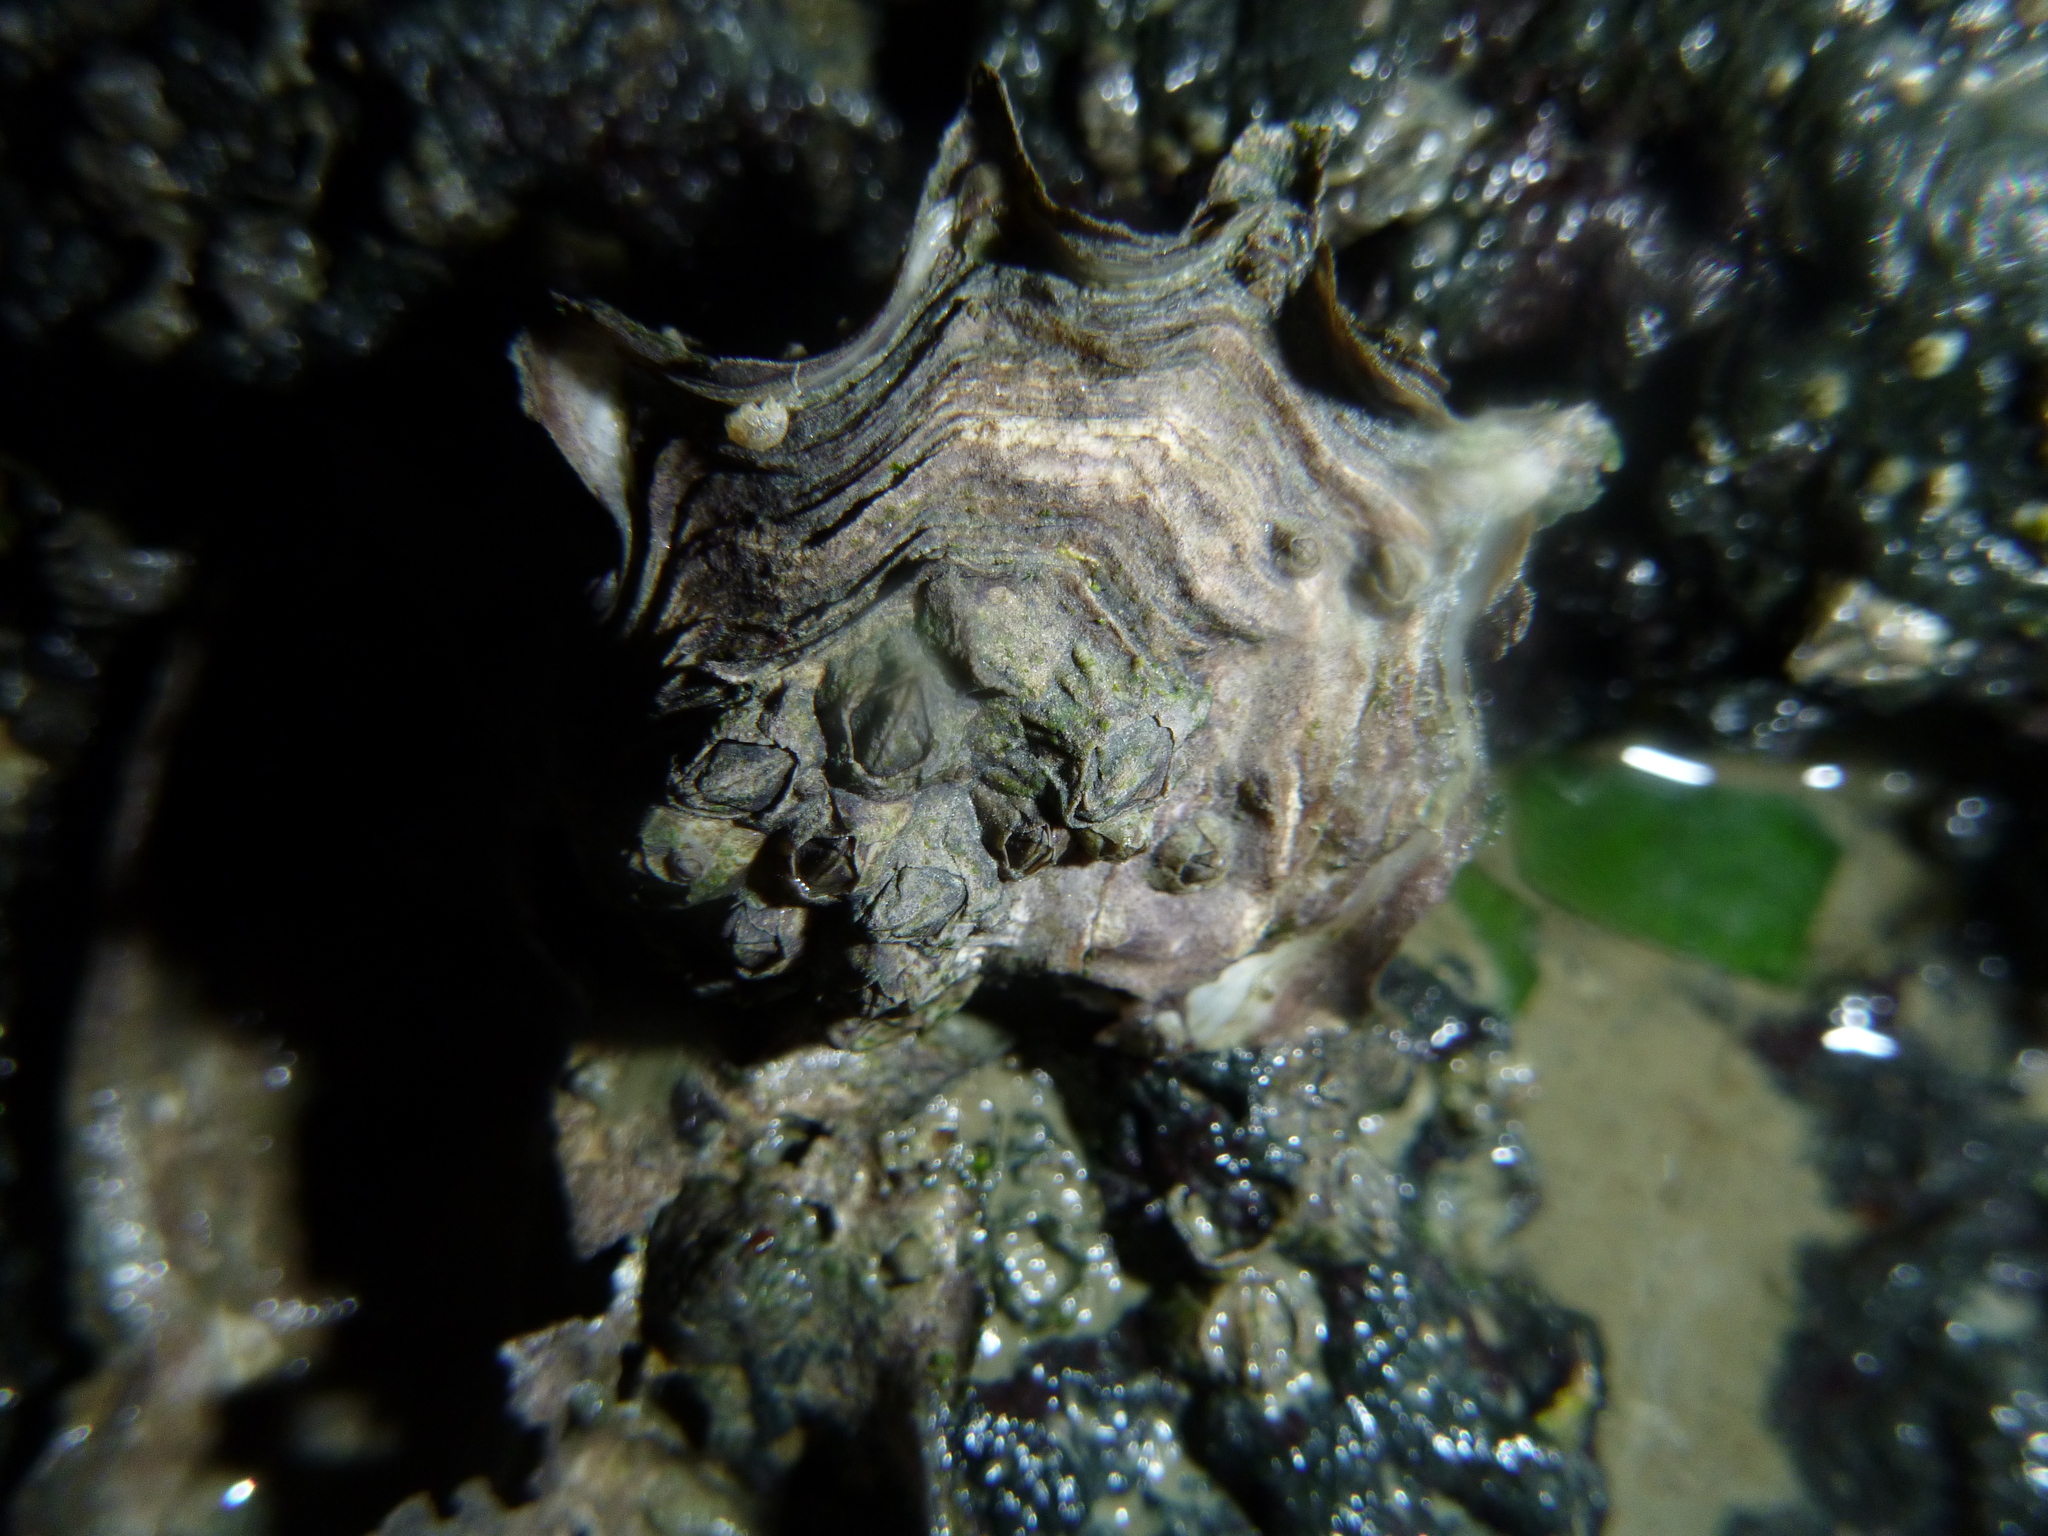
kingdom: Animalia
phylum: Mollusca
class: Bivalvia
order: Ostreida
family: Ostreidae
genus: Magallana
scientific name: Magallana gigas
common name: Pacific oyster
